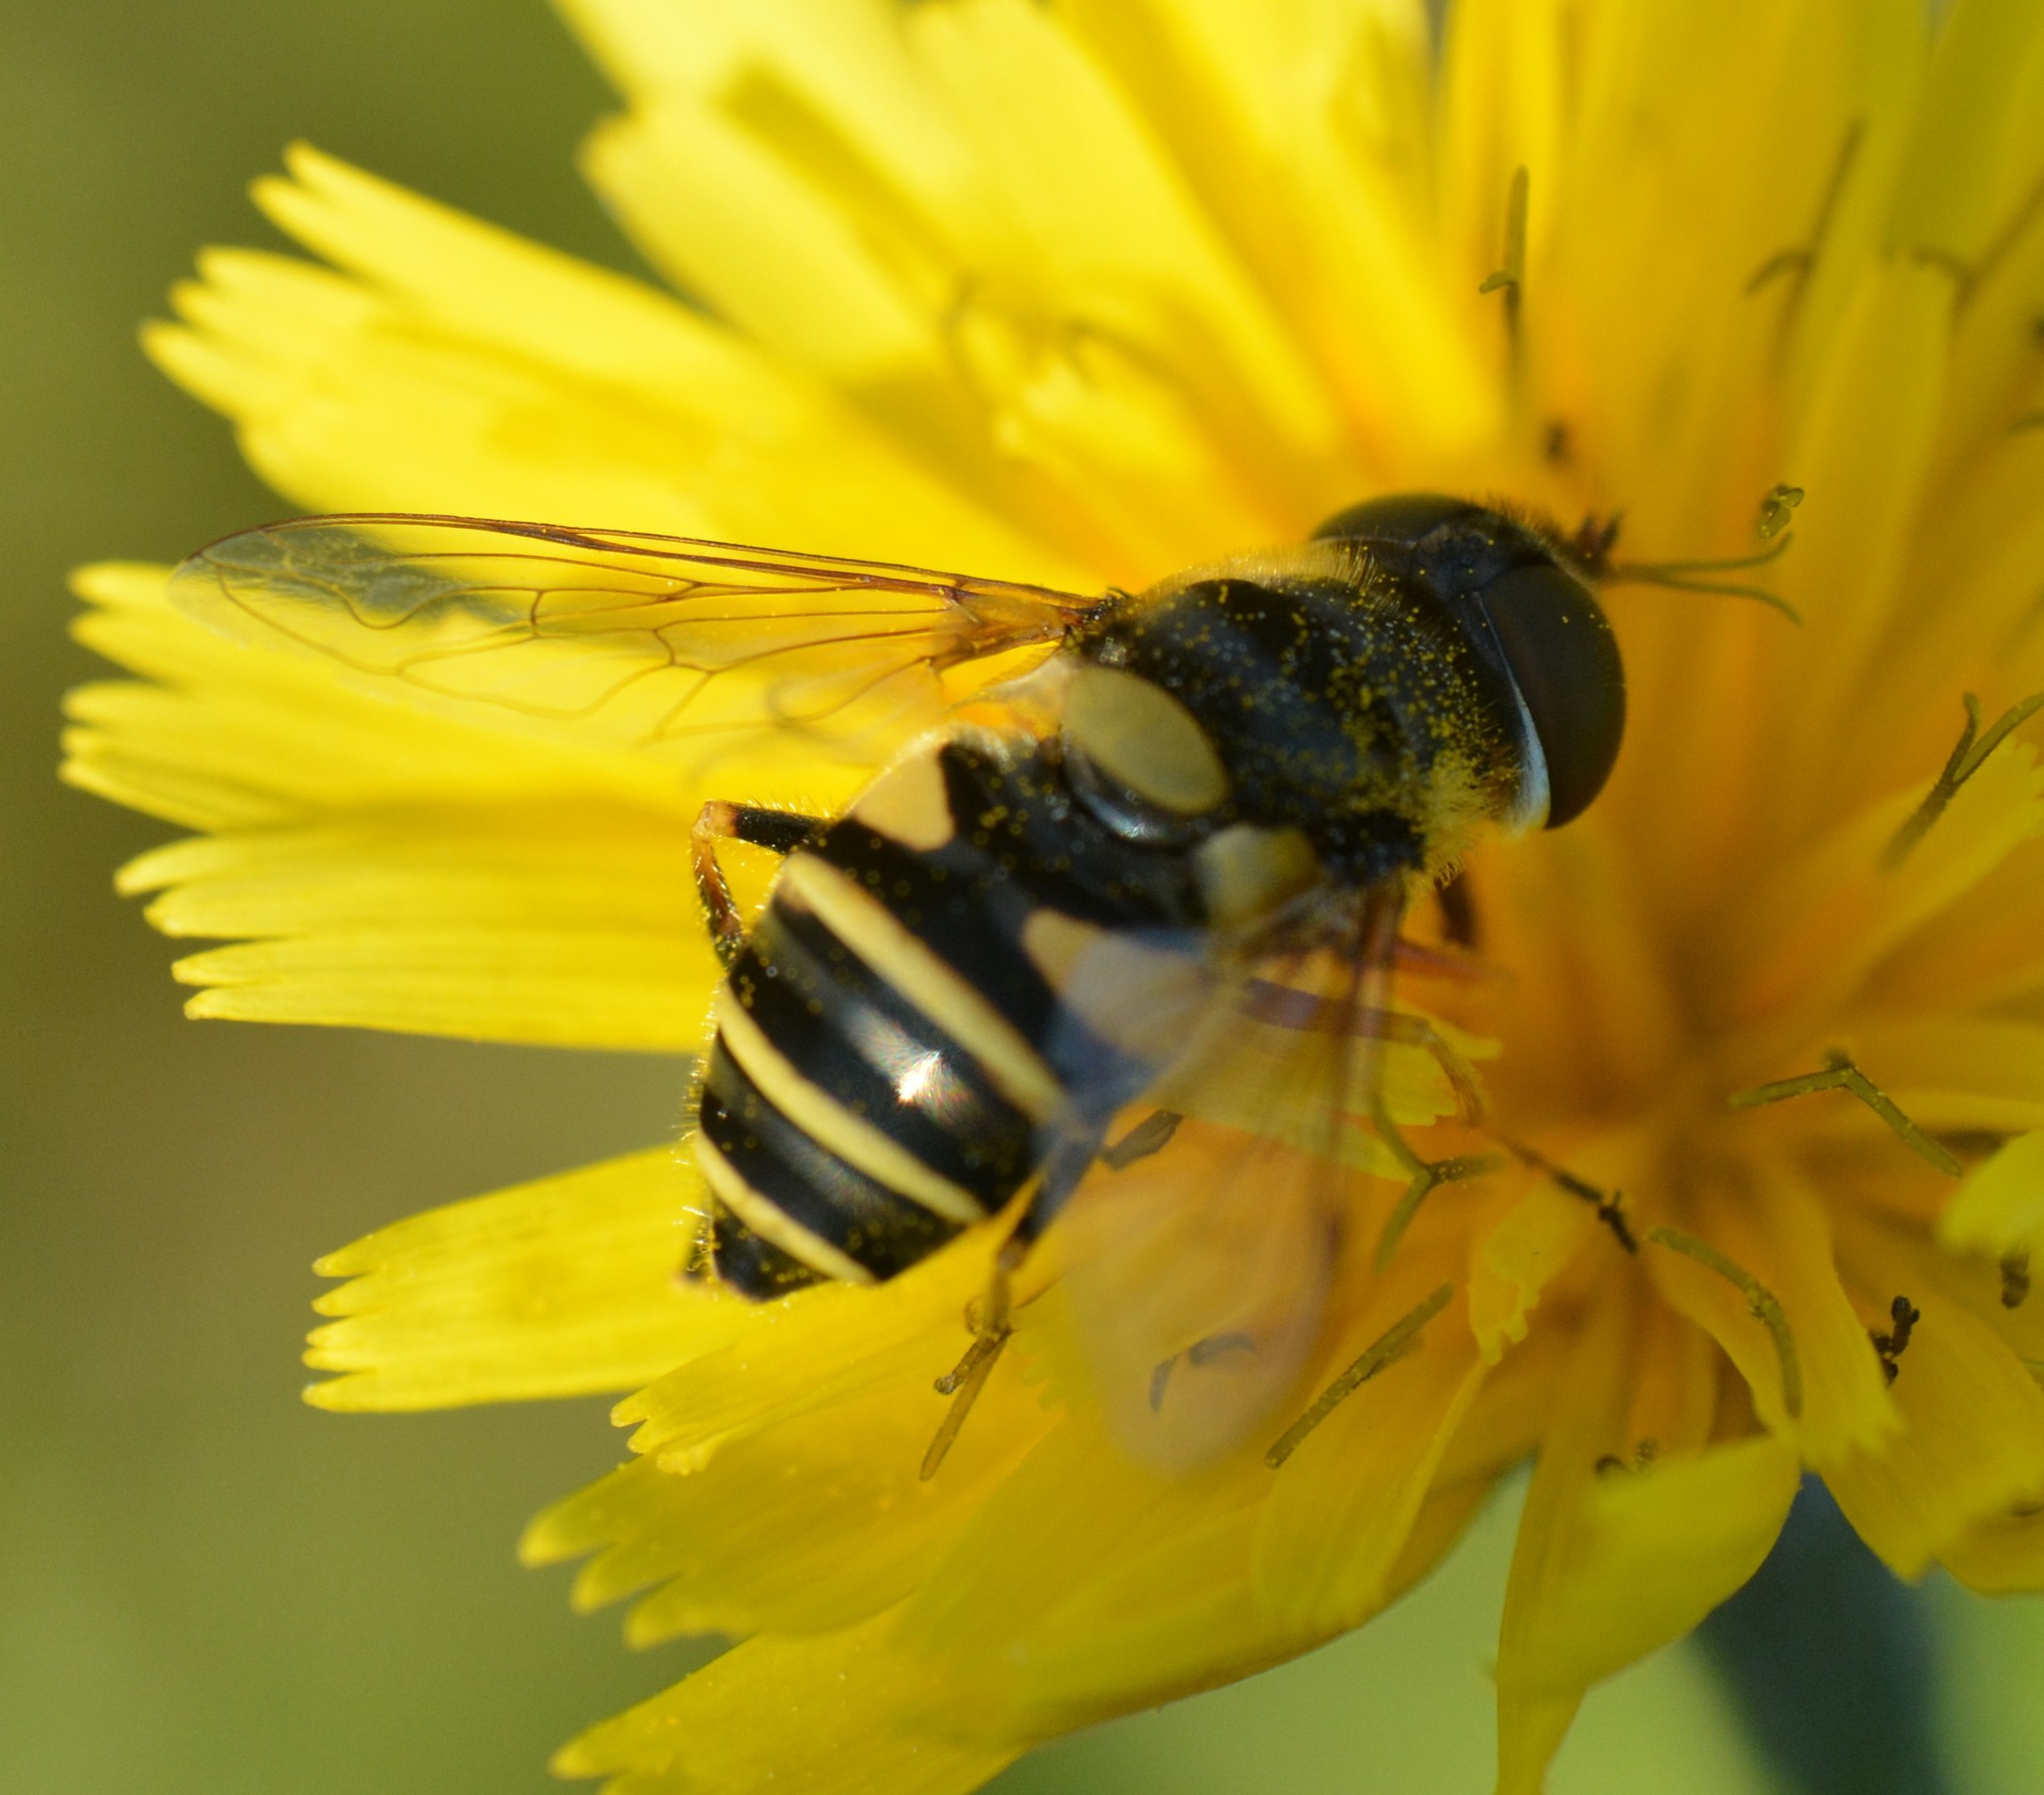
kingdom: Animalia
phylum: Arthropoda
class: Insecta
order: Diptera
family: Syrphidae
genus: Eristalis
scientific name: Eristalis transversa
